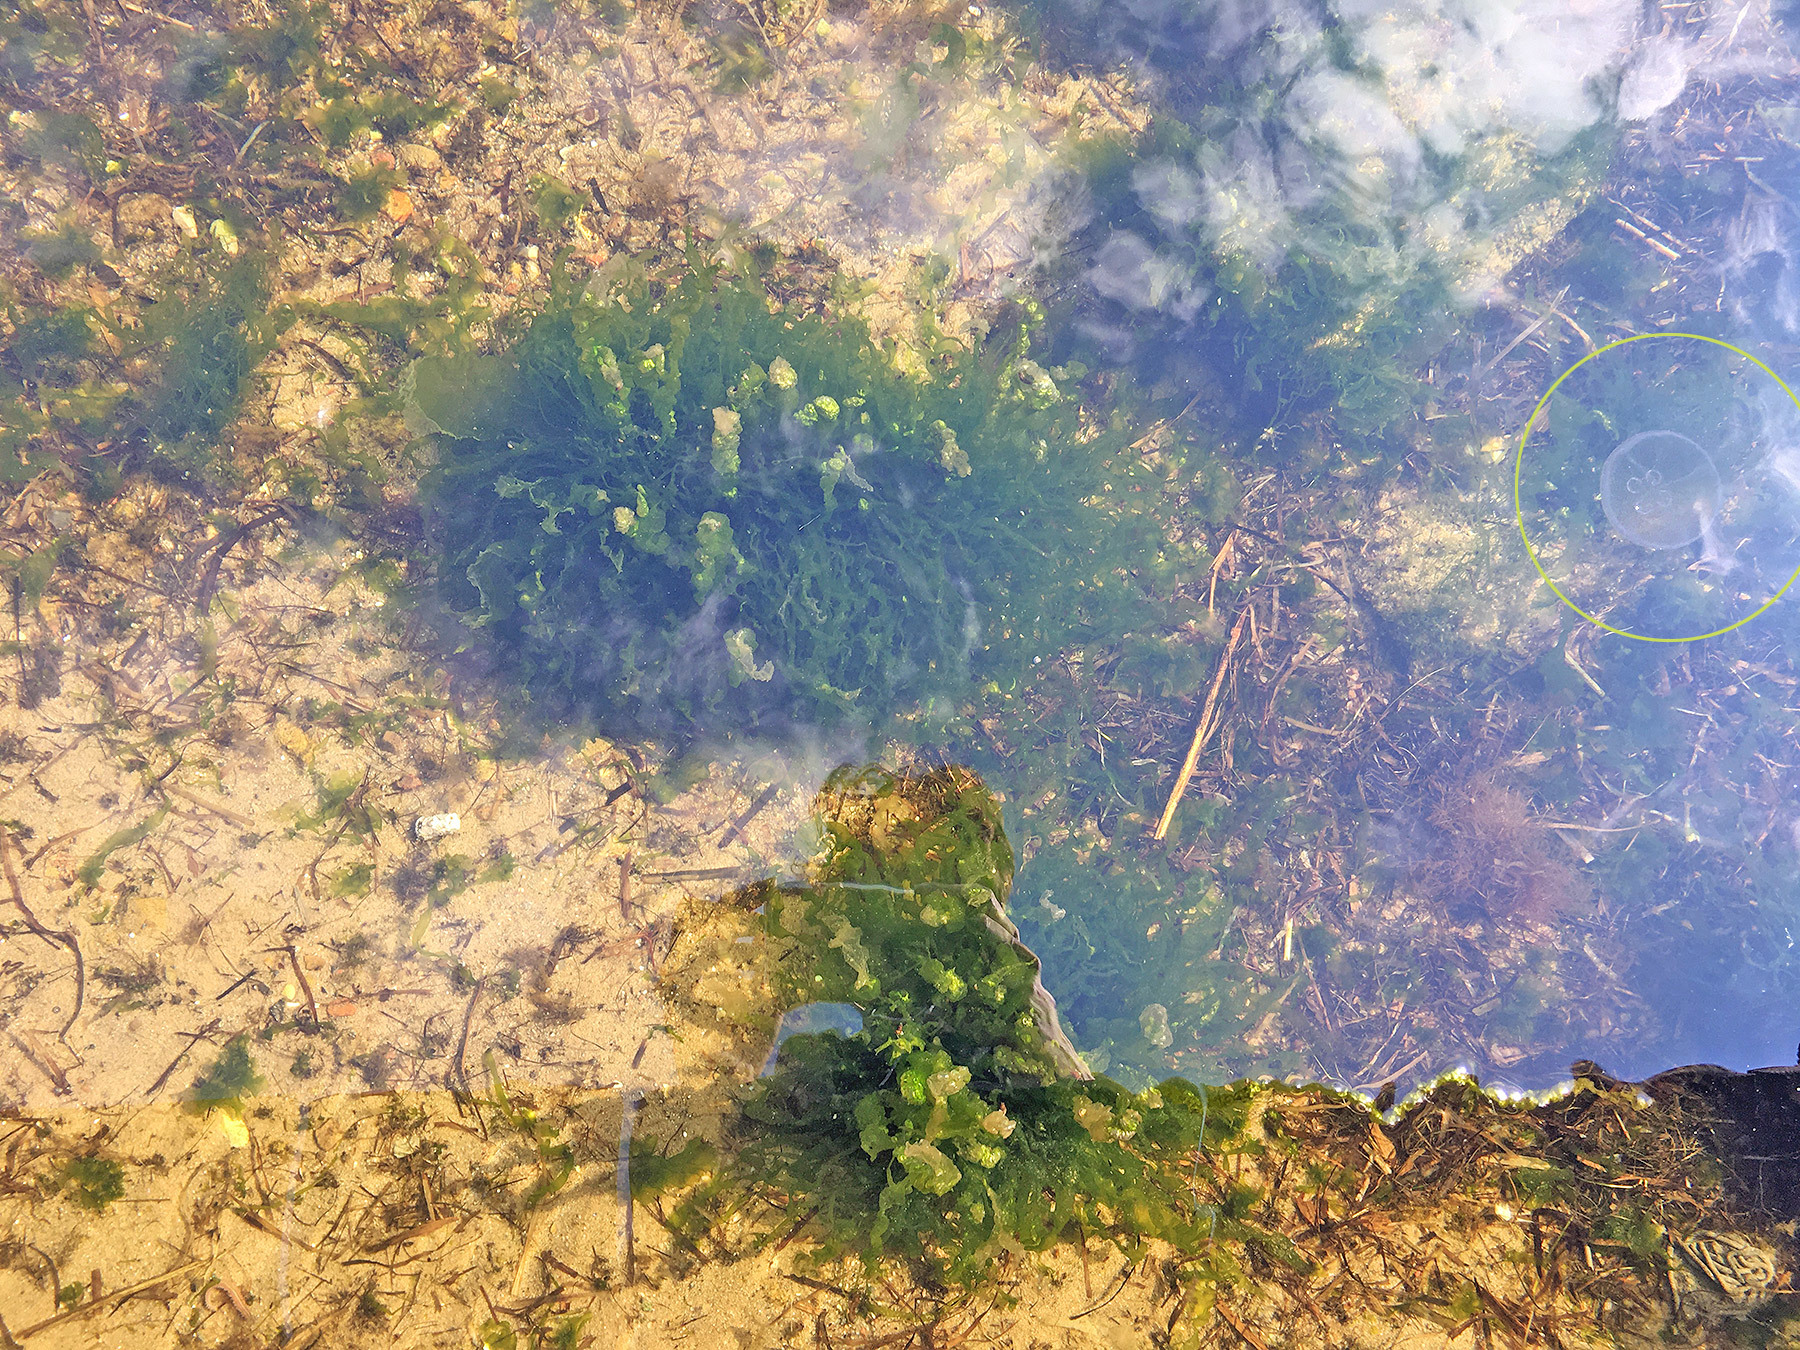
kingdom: Animalia
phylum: Cnidaria
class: Scyphozoa
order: Semaeostomeae
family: Ulmaridae
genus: Aurelia
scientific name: Aurelia aurita
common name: Moon jellyfish
